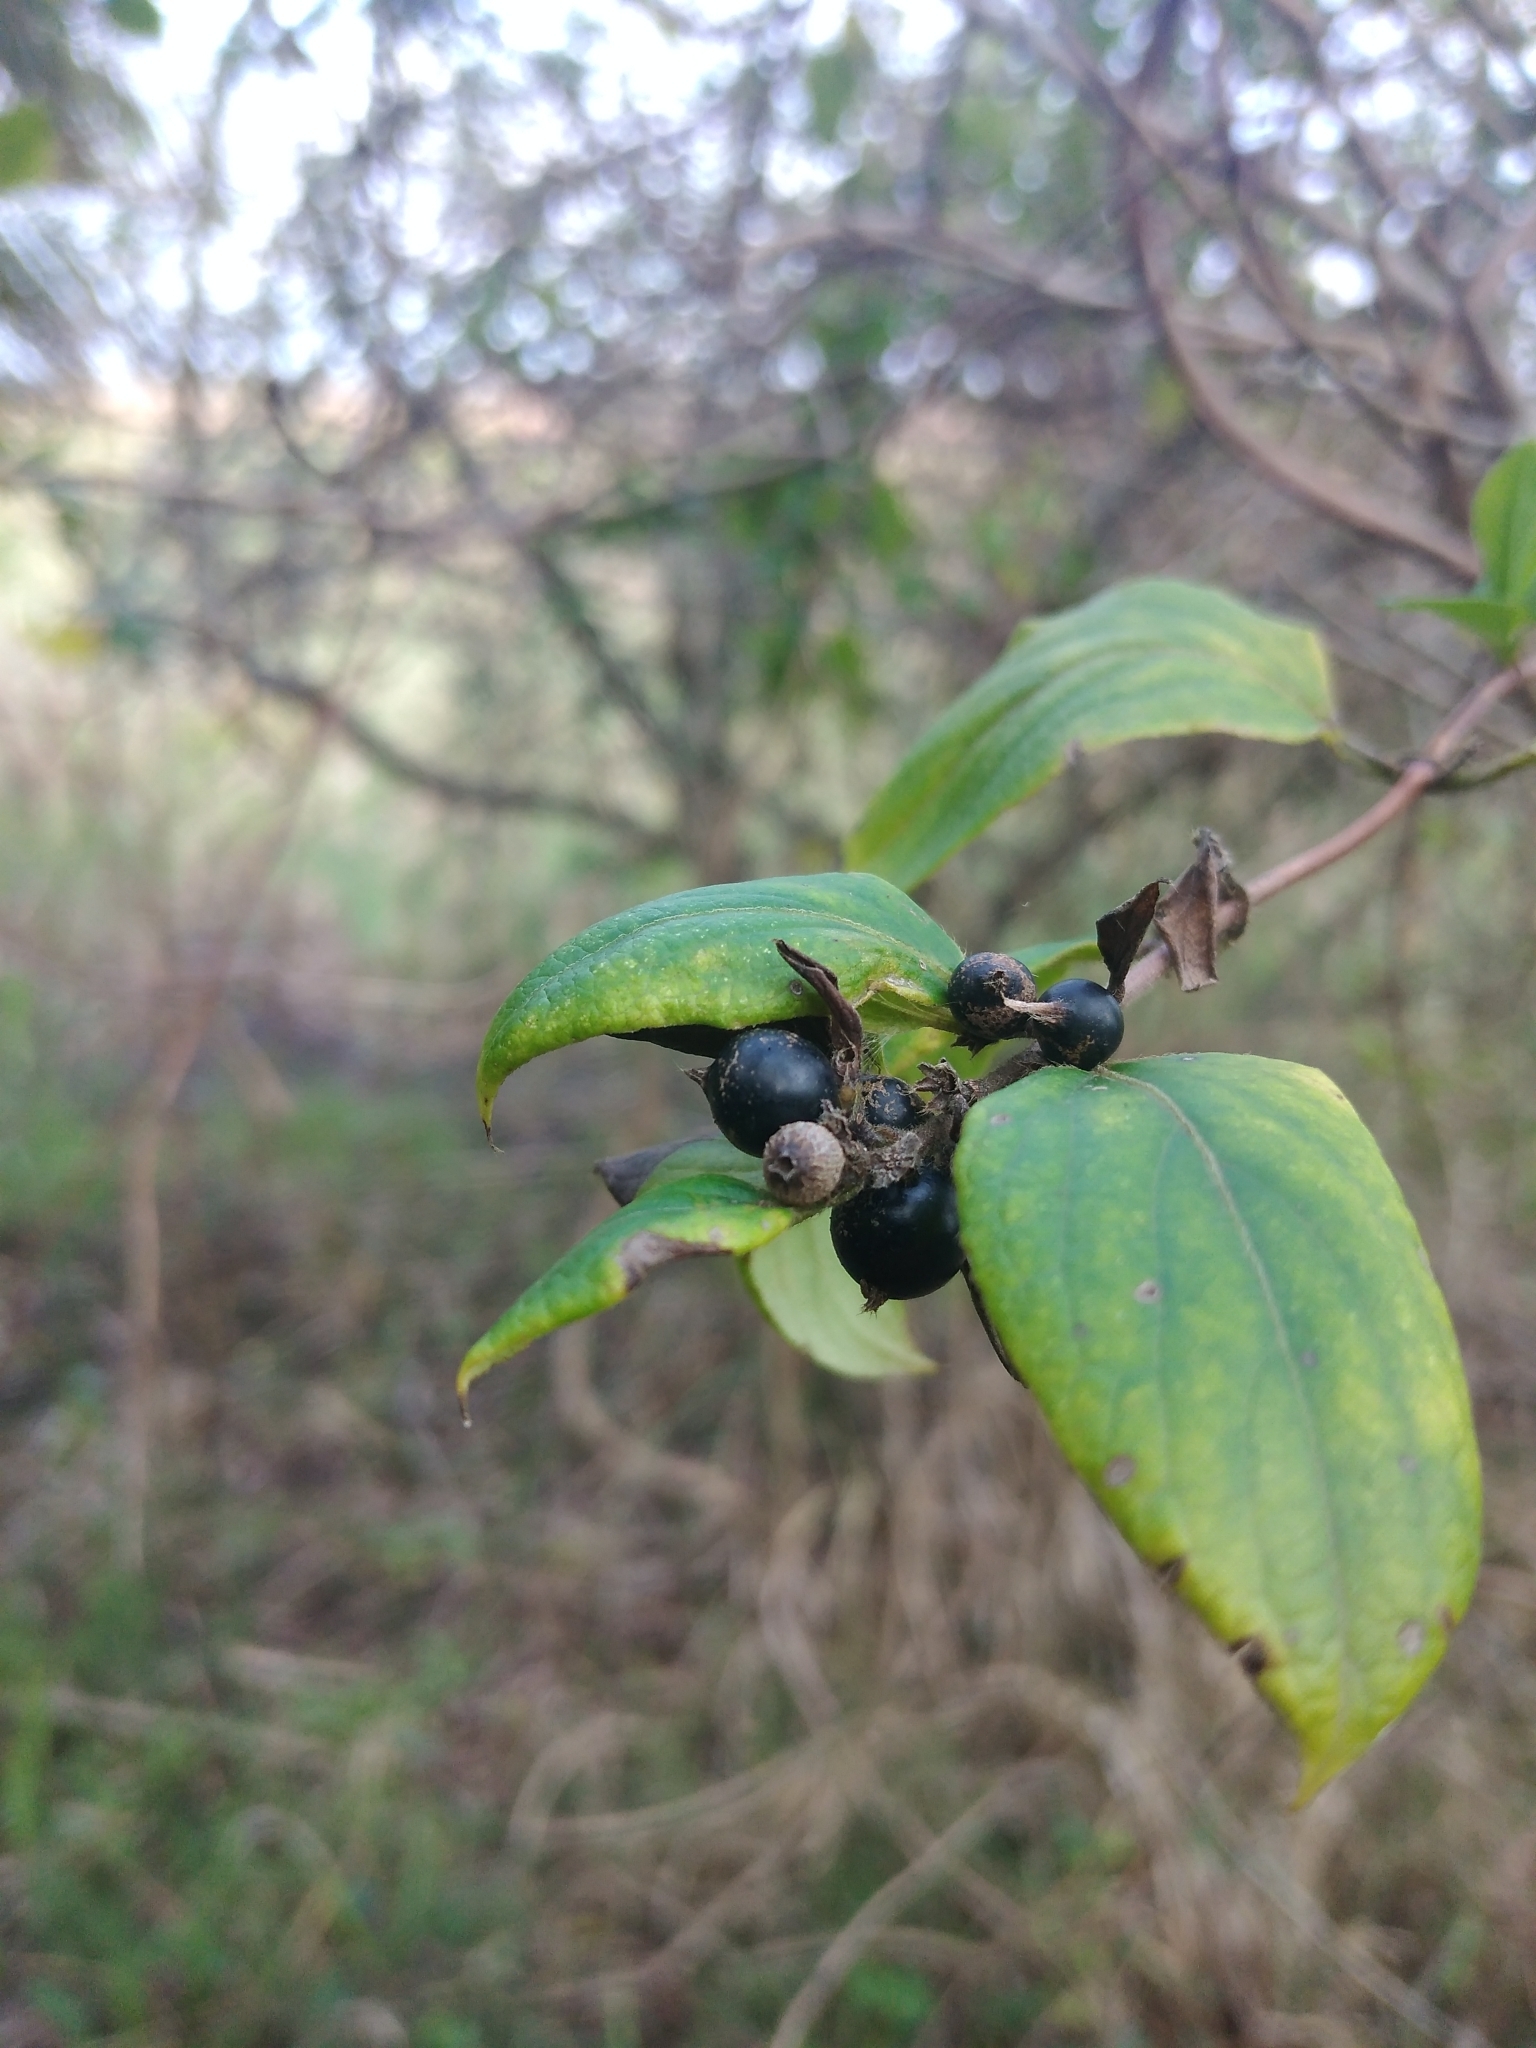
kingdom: Plantae
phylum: Tracheophyta
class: Magnoliopsida
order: Dipsacales
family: Caprifoliaceae
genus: Lonicera
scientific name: Lonicera japonica
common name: Japanese honeysuckle
